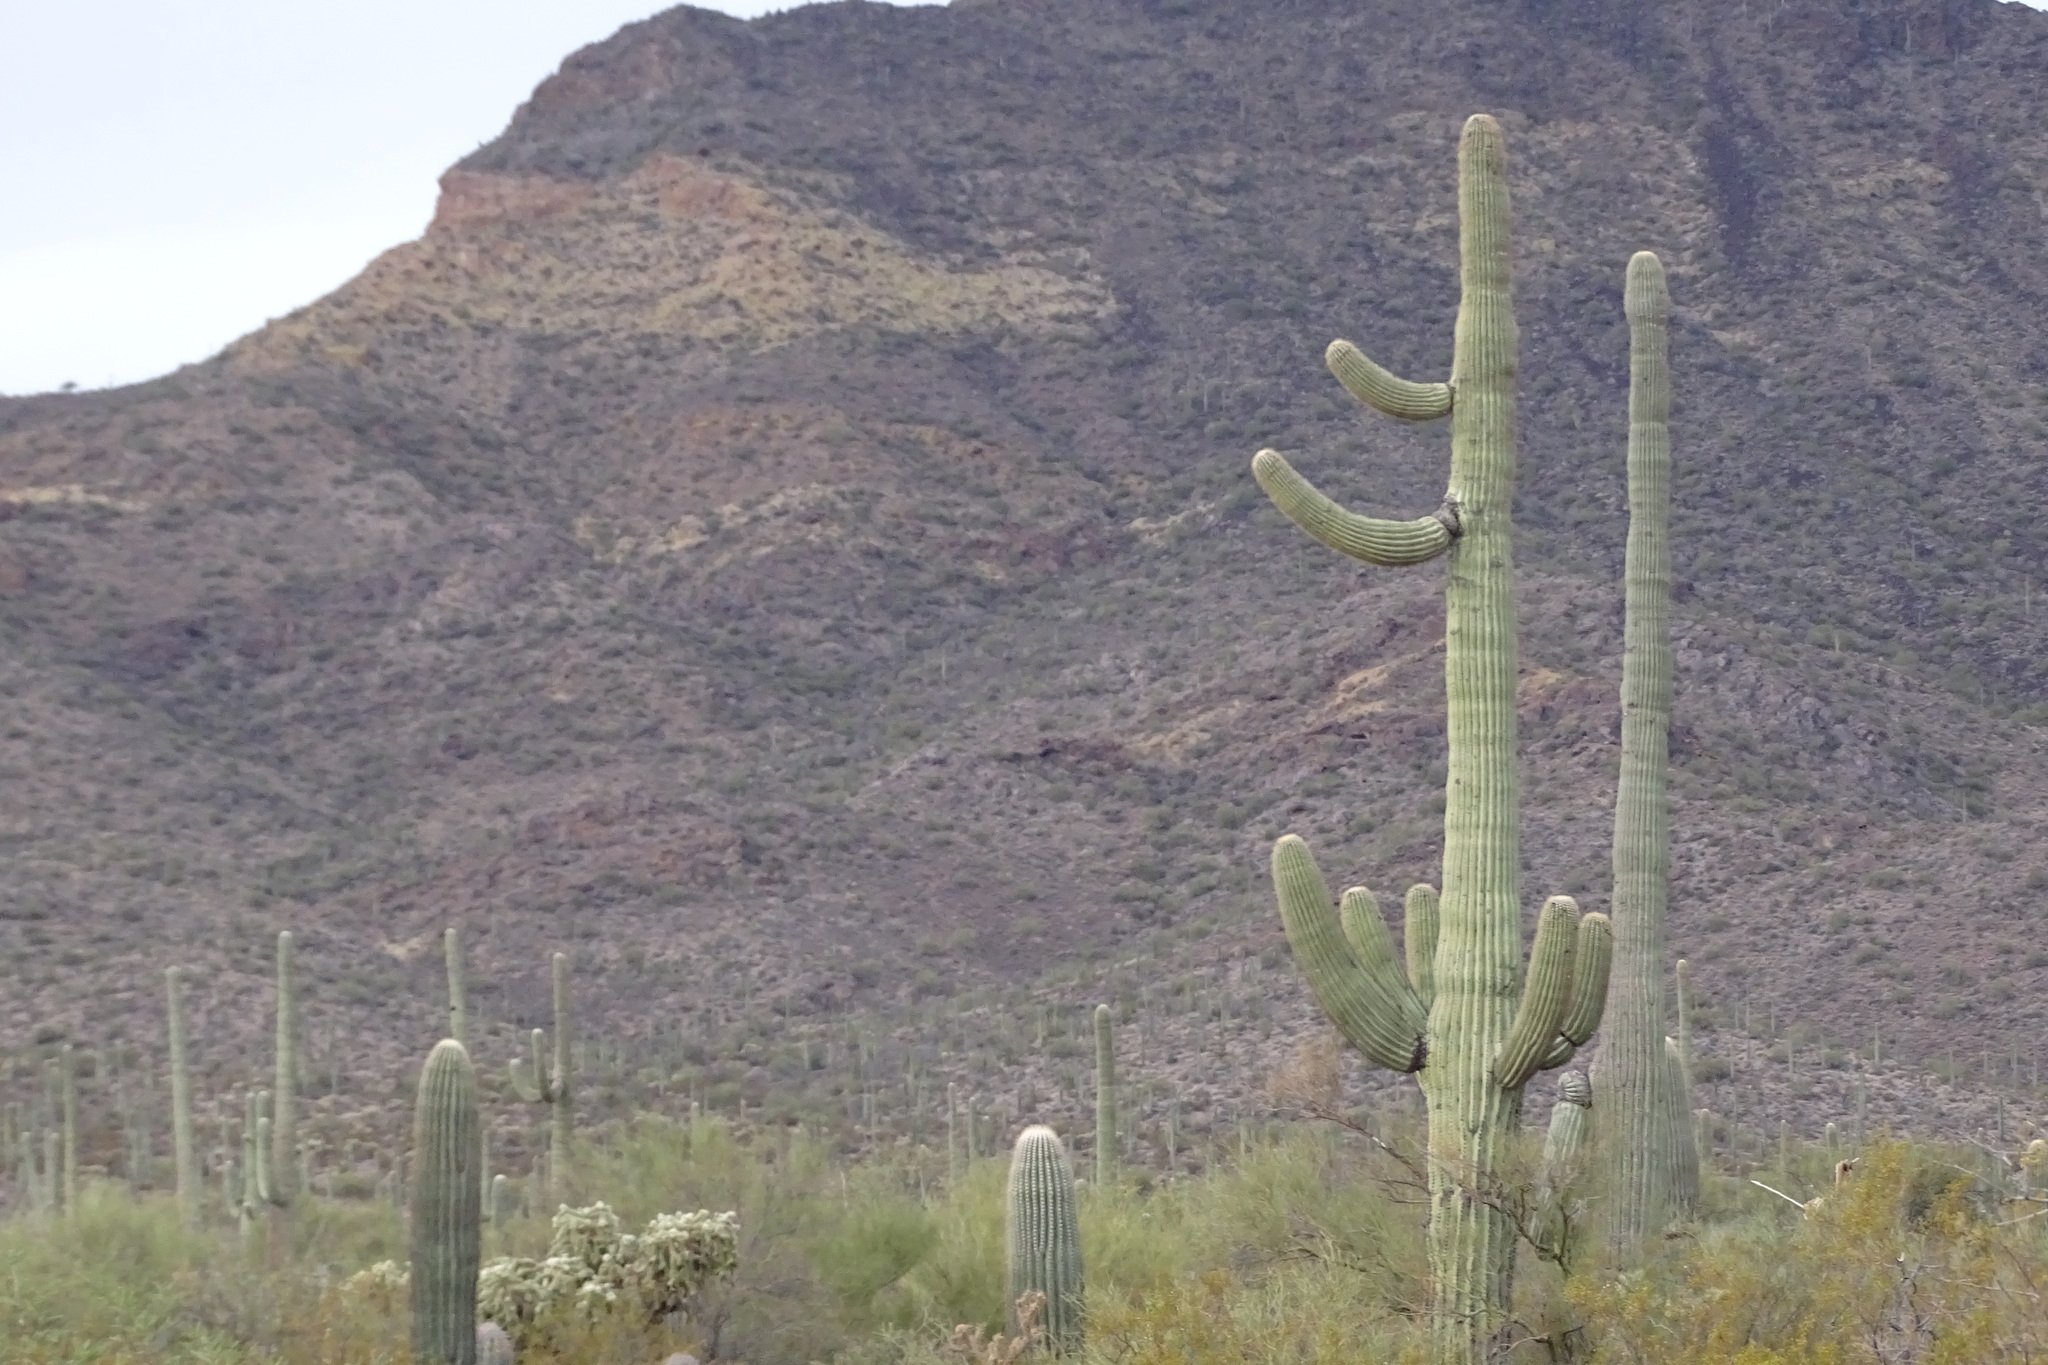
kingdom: Plantae
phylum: Tracheophyta
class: Magnoliopsida
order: Caryophyllales
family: Cactaceae
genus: Carnegiea
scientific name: Carnegiea gigantea
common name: Saguaro
